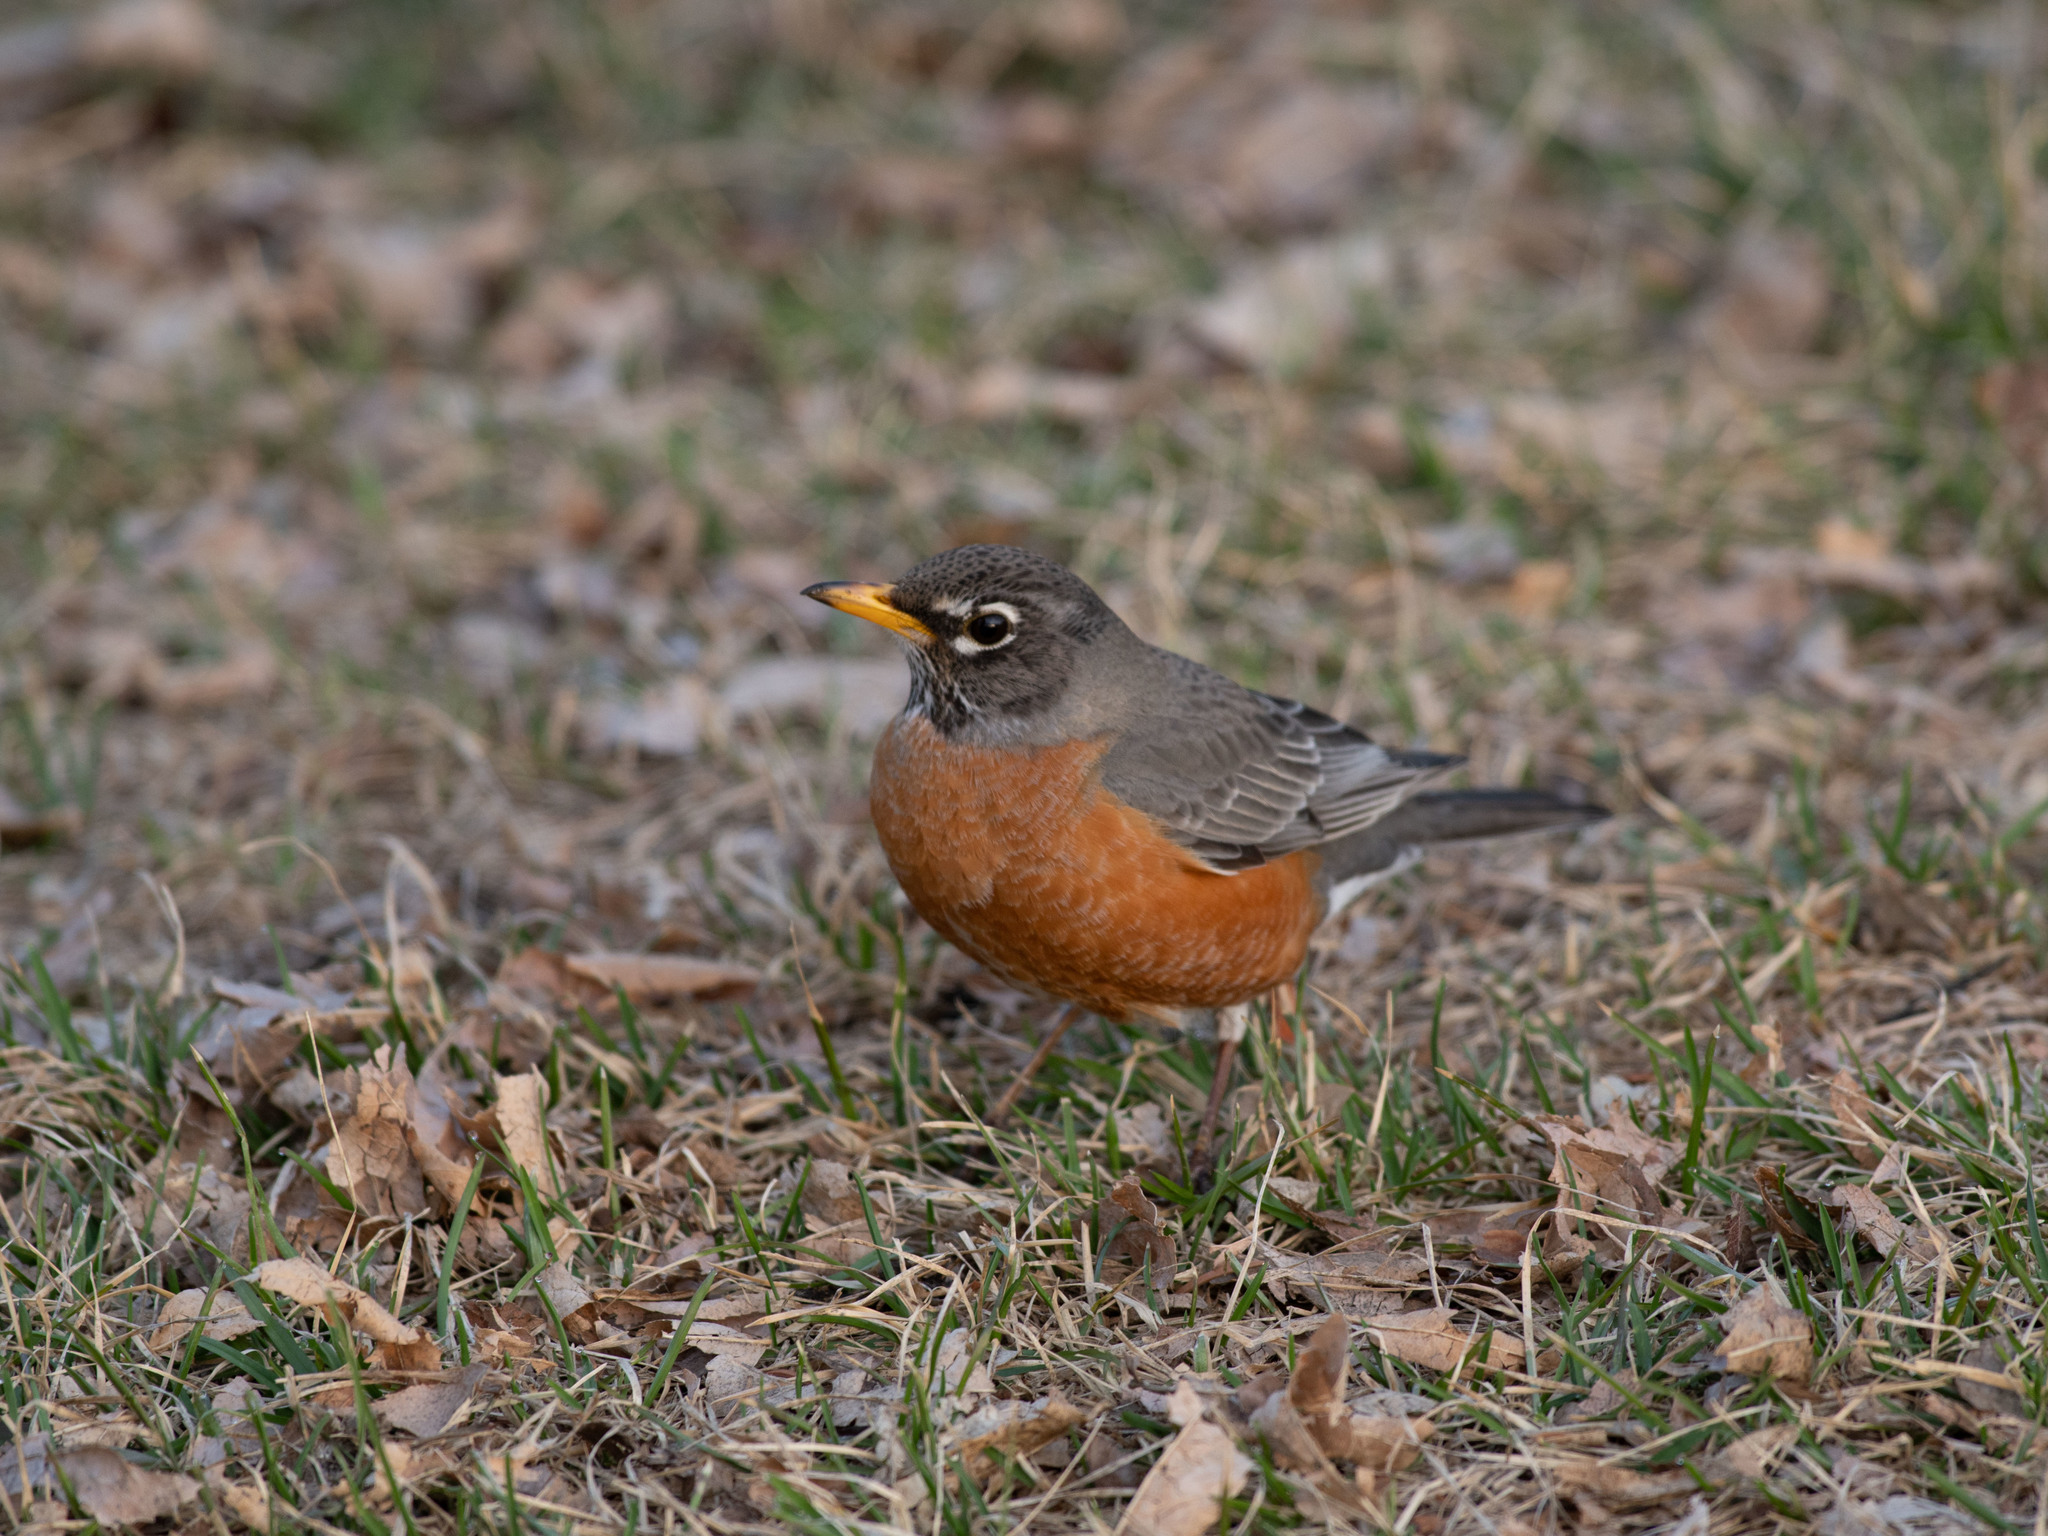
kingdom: Animalia
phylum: Chordata
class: Aves
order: Passeriformes
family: Turdidae
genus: Turdus
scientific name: Turdus migratorius
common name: American robin
